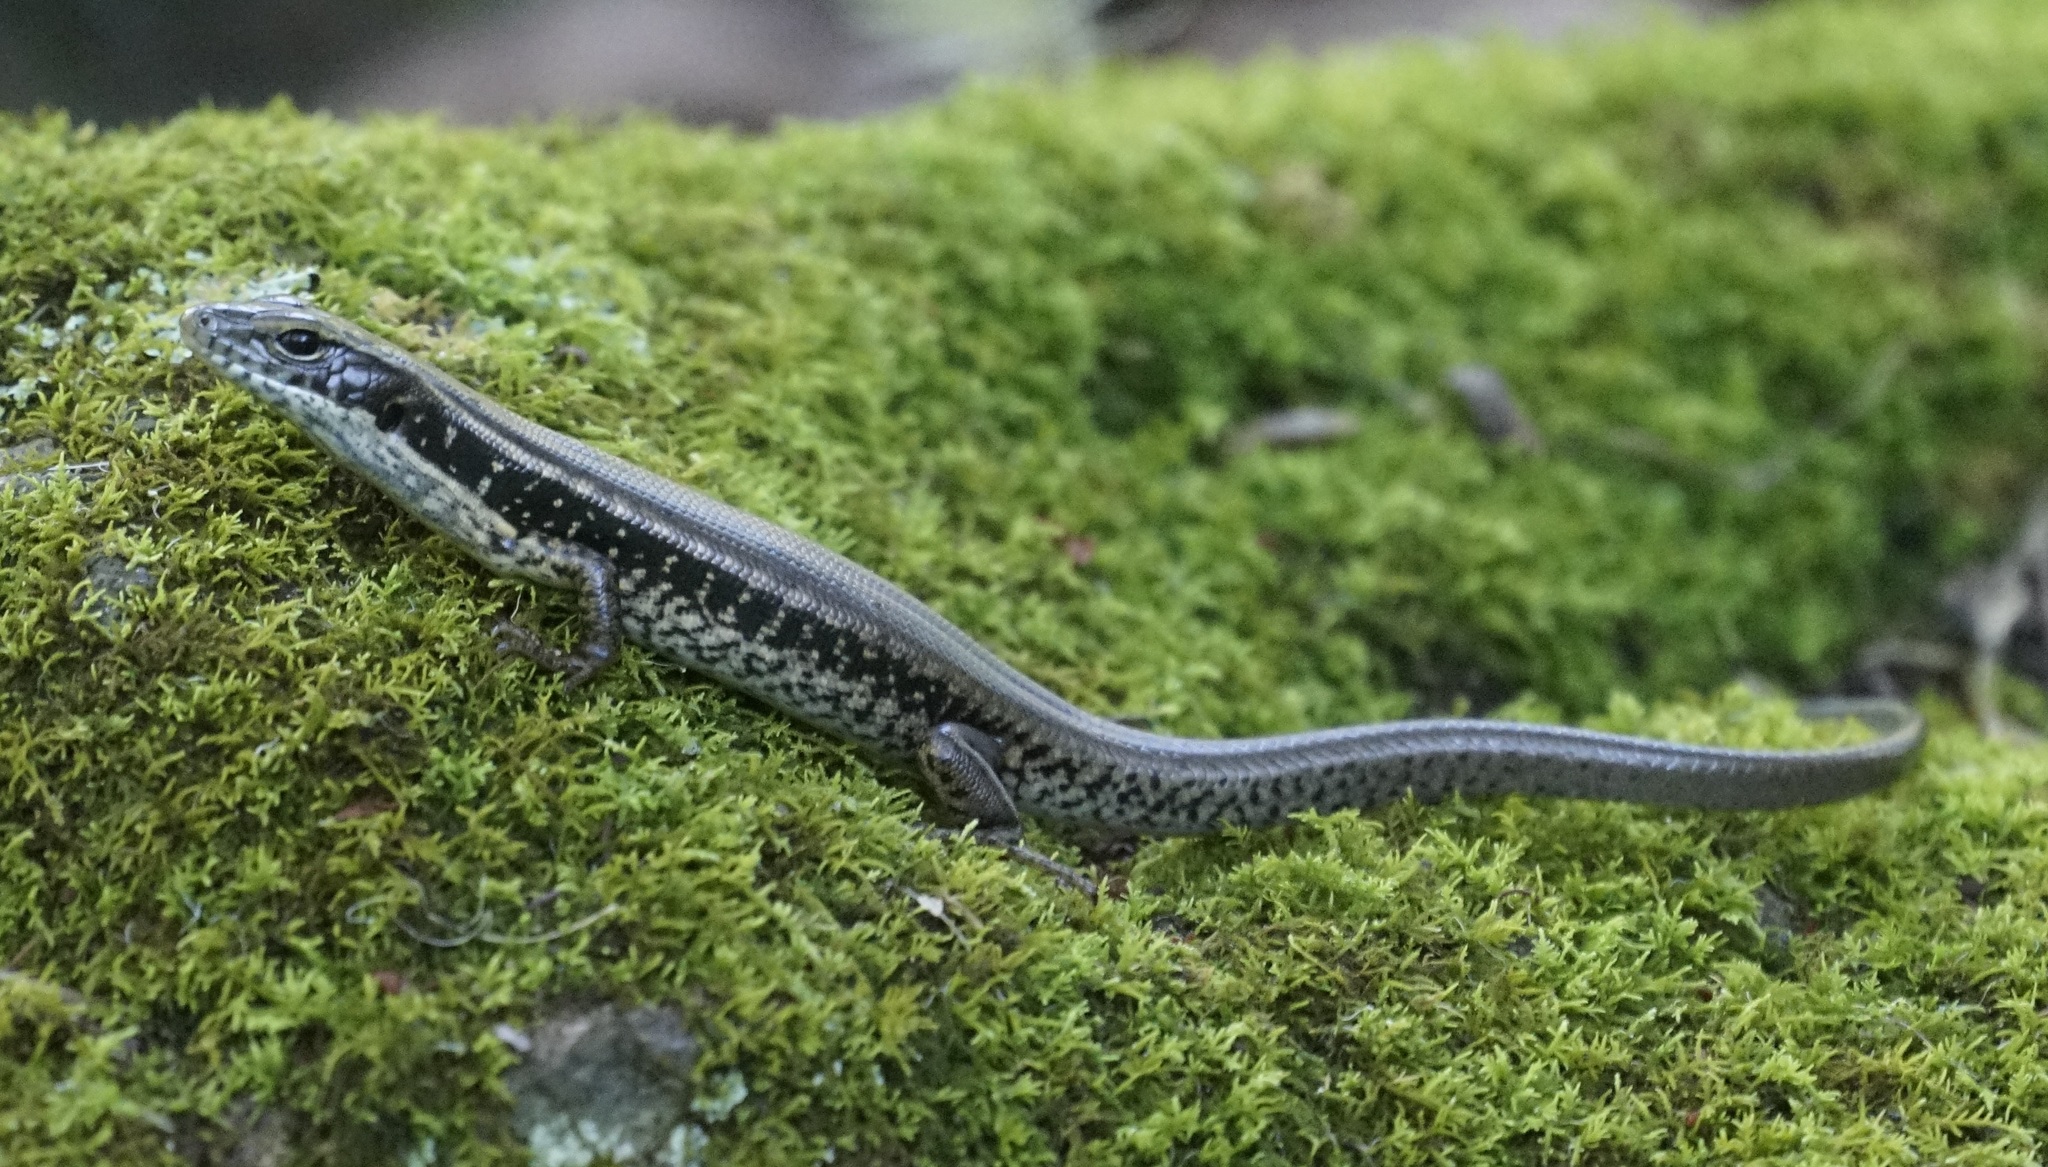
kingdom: Animalia
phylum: Chordata
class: Squamata
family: Scincidae
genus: Eulamprus
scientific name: Eulamprus quoyii
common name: Eastern water skink
